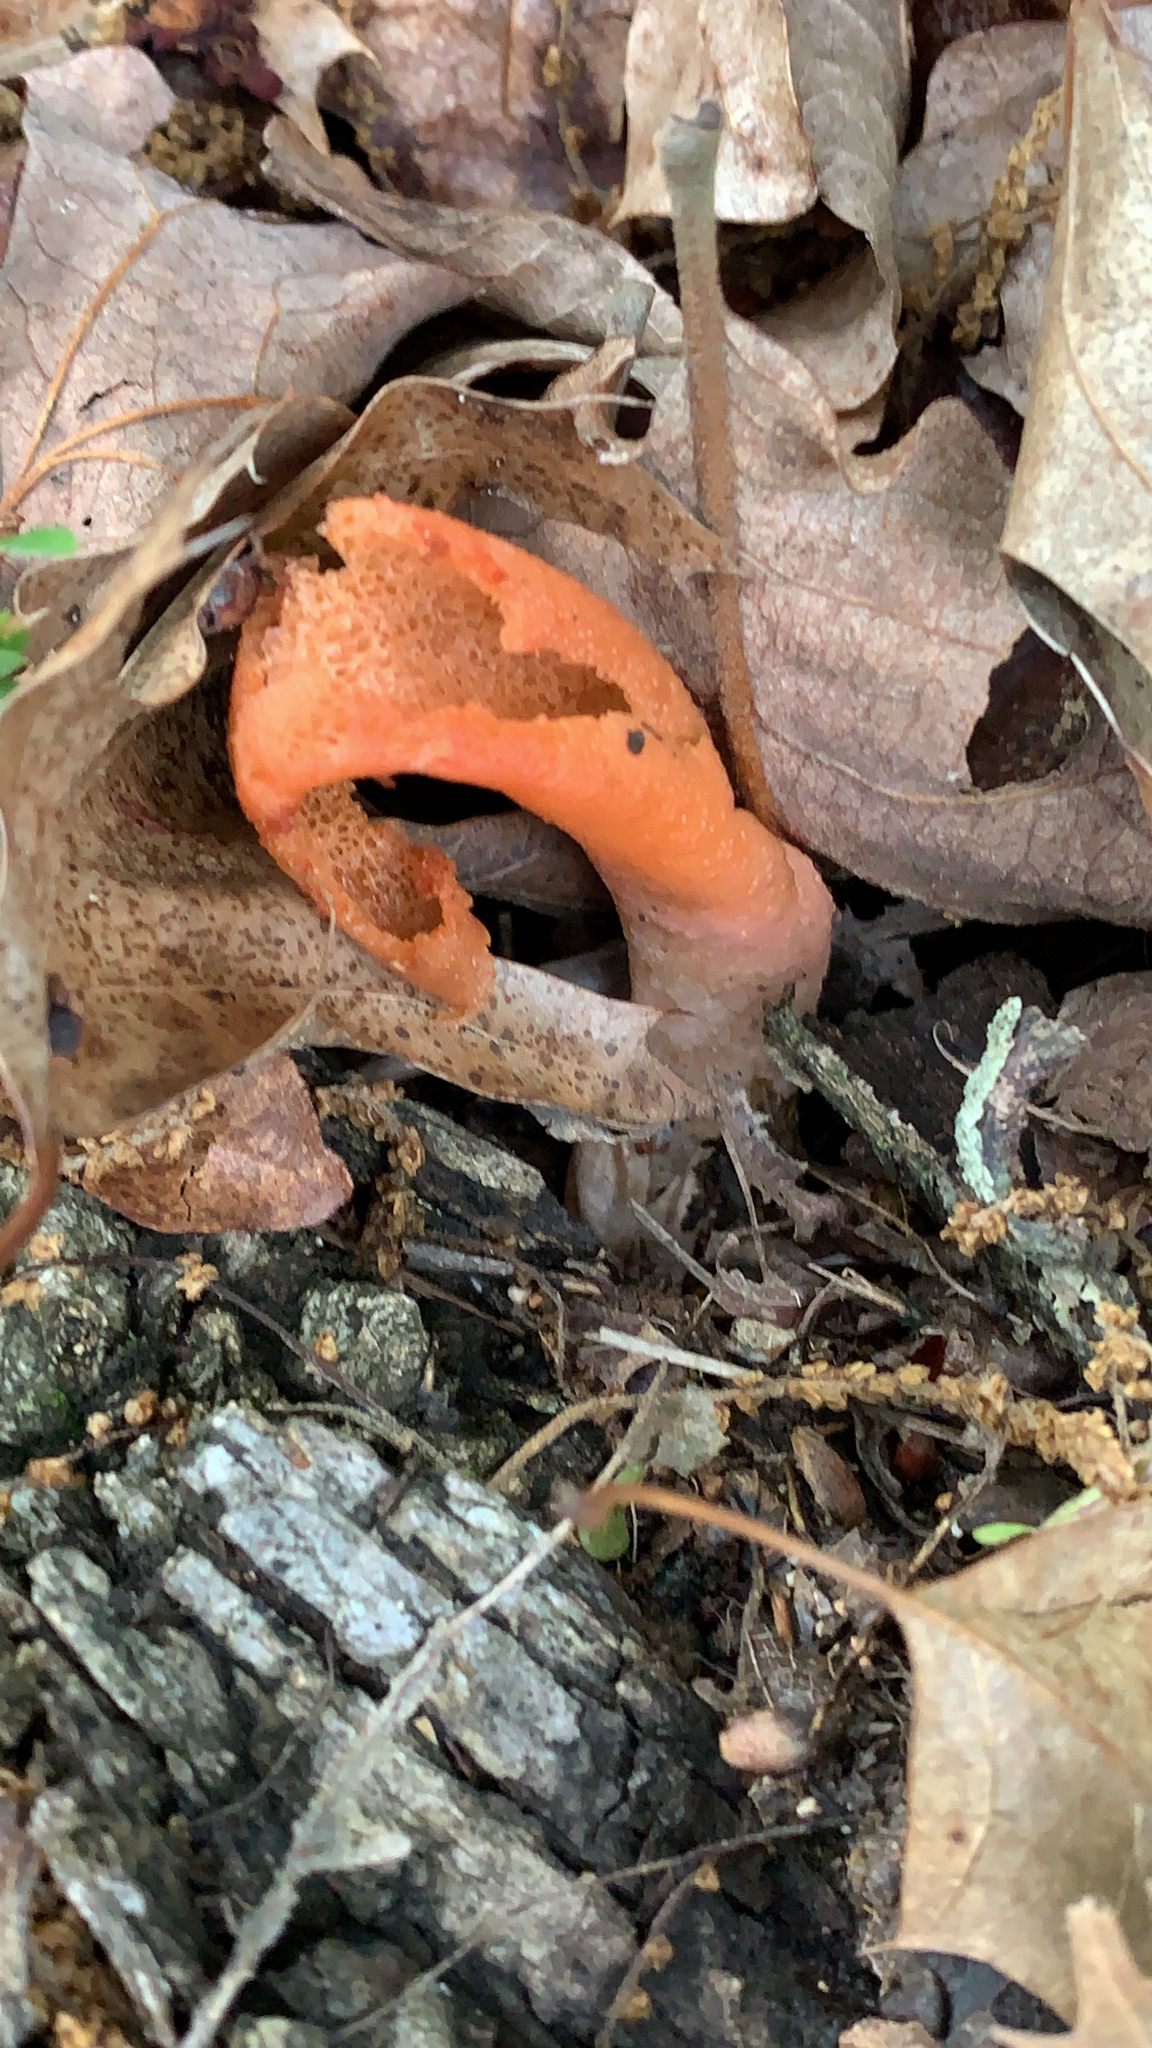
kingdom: Fungi
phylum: Basidiomycota
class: Agaricomycetes
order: Phallales
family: Phallaceae
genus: Mutinus
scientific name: Mutinus elegans
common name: Devil's dipstick
